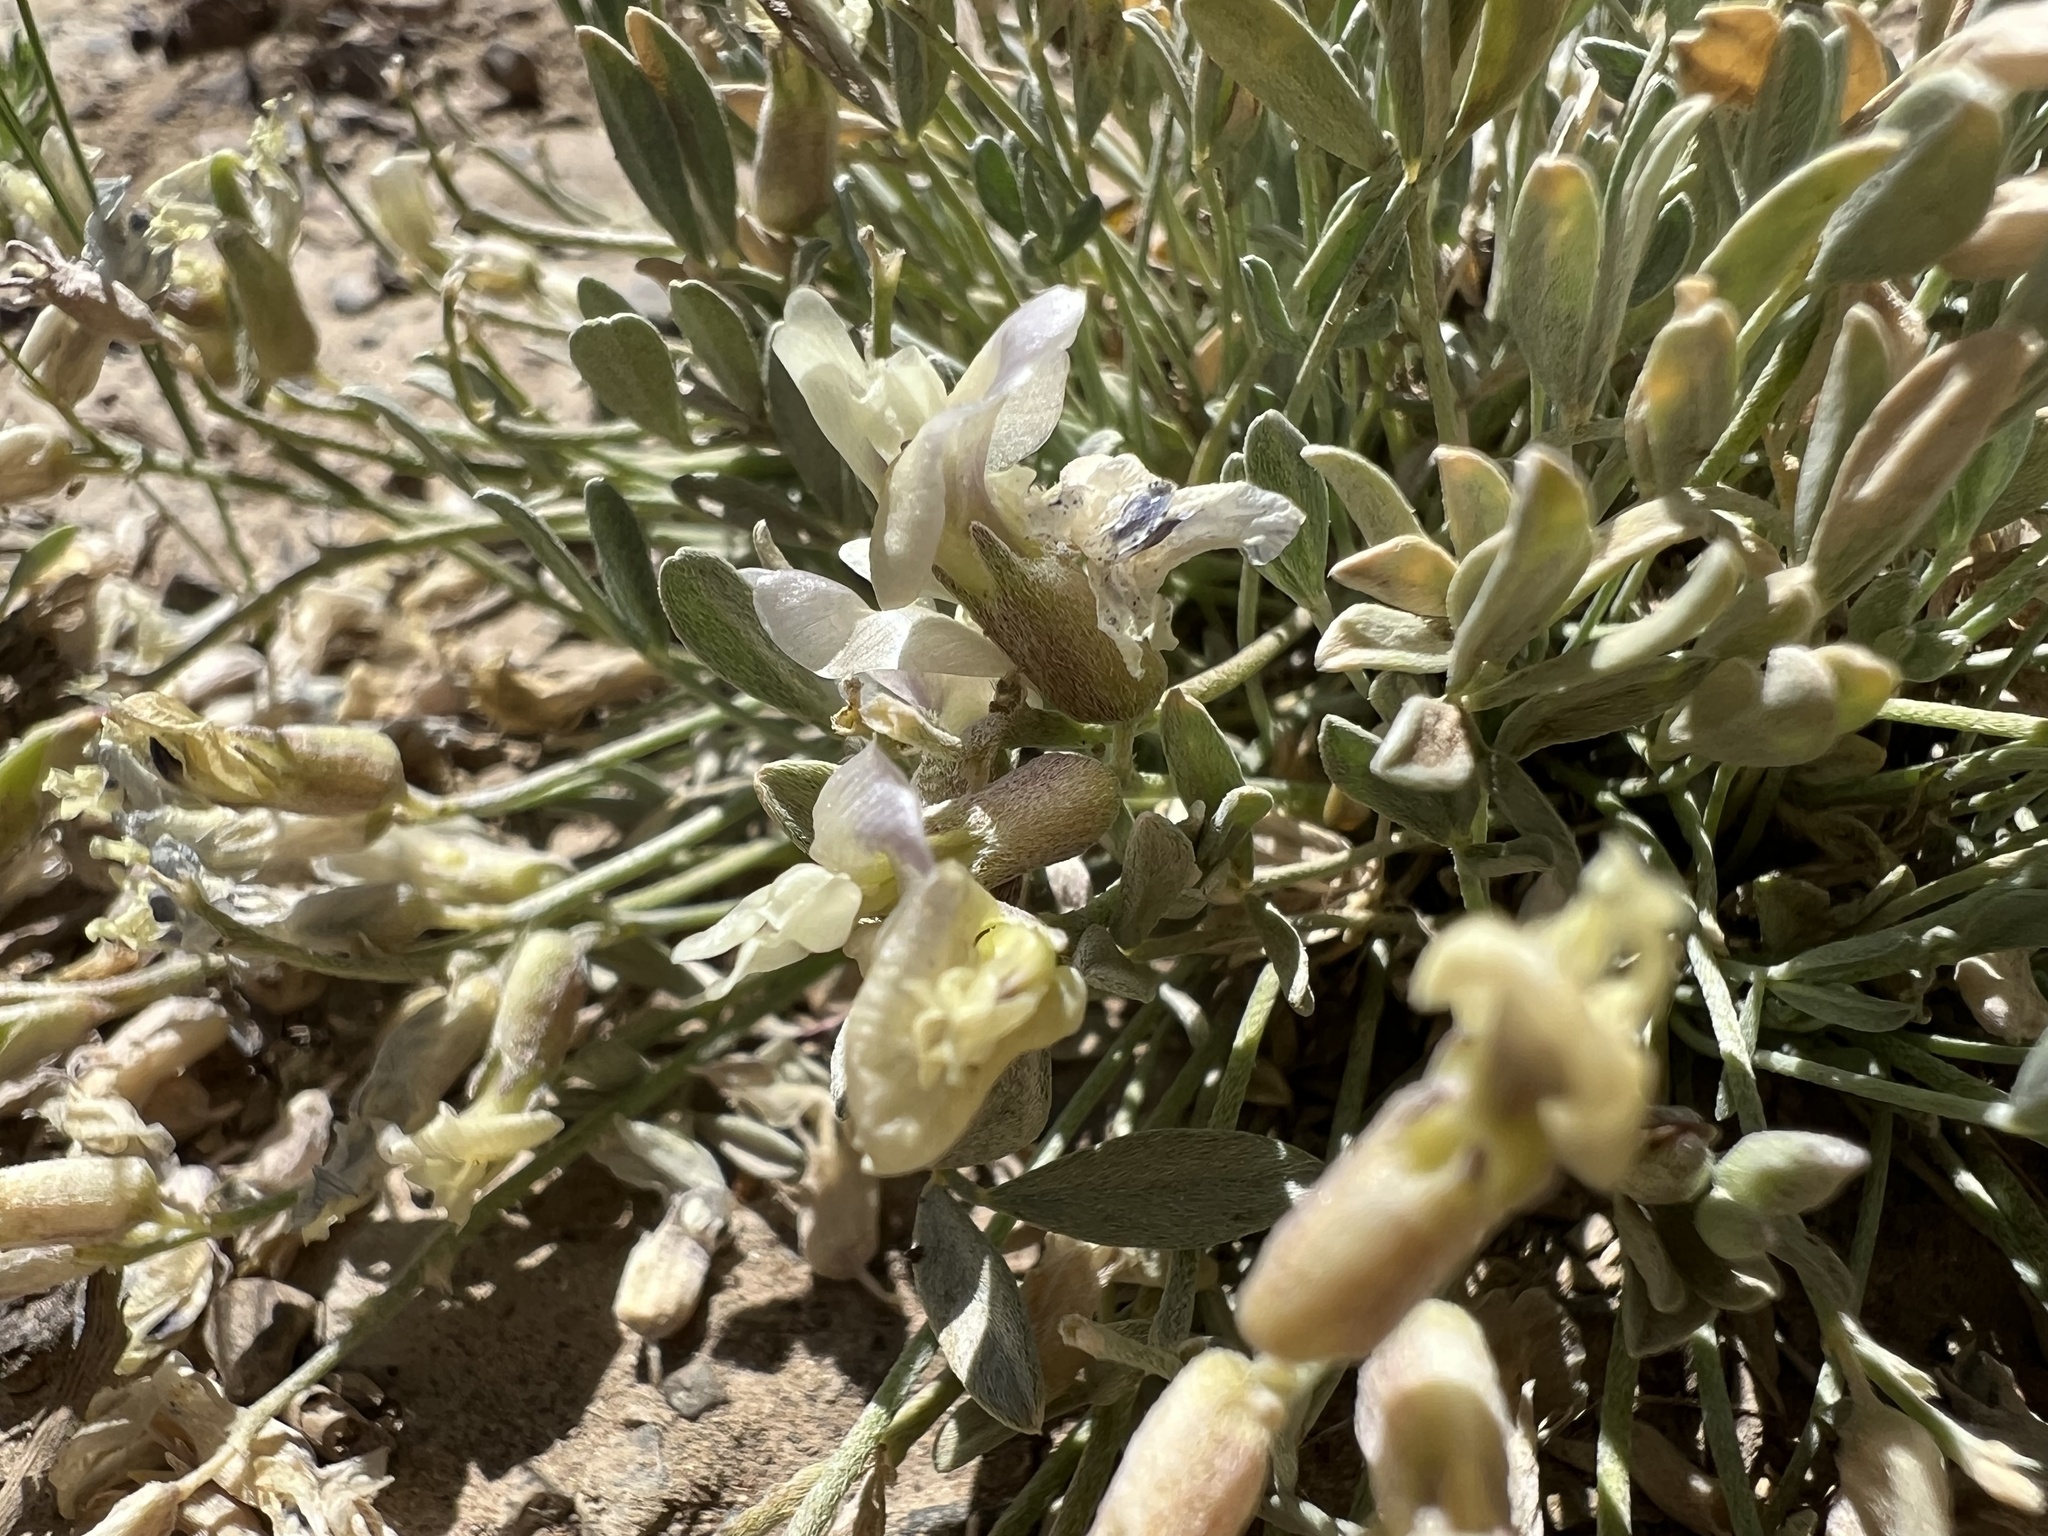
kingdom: Plantae
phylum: Tracheophyta
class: Magnoliopsida
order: Fabales
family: Fabaceae
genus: Astragalus
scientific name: Astragalus calycosus
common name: King's milkvetch
